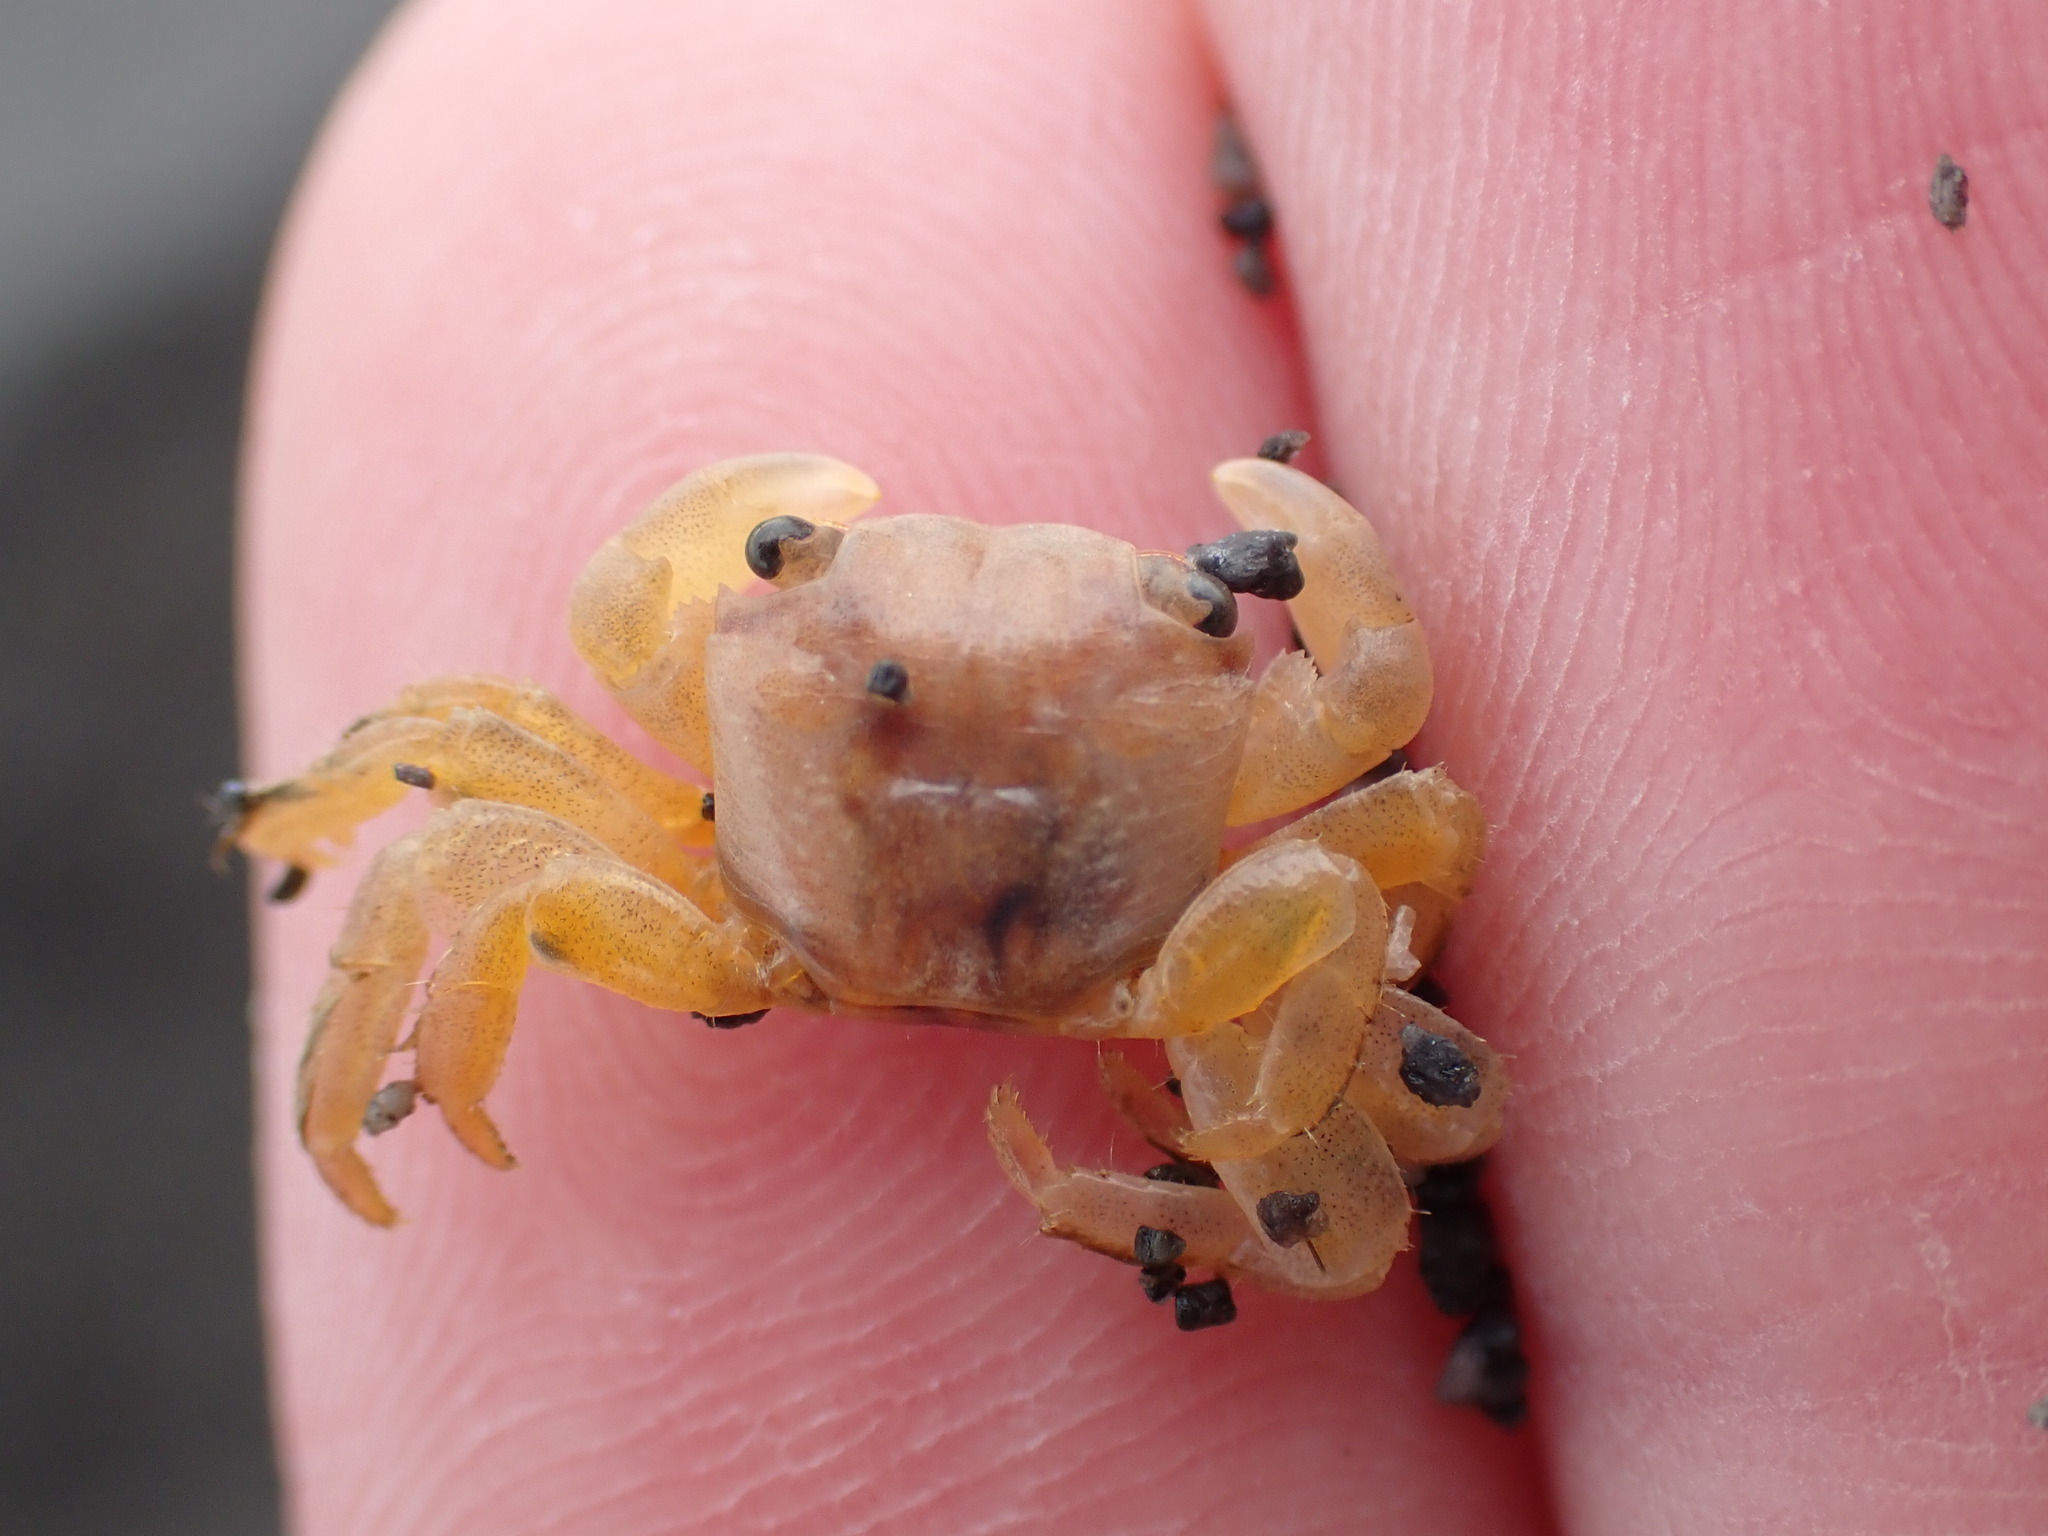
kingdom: Animalia
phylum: Arthropoda
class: Malacostraca
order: Decapoda
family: Grapsidae
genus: Planes
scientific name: Planes minutus
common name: Gulf weed crab
